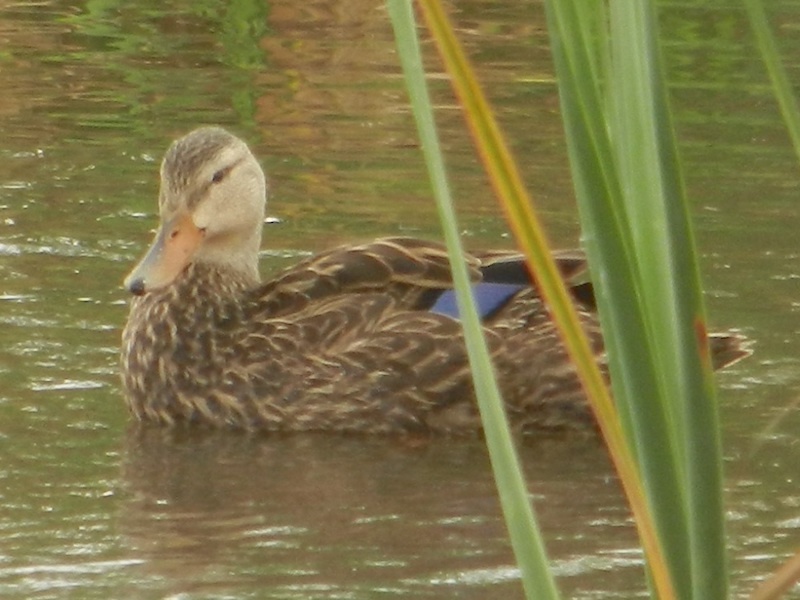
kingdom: Animalia
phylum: Chordata
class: Aves
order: Anseriformes
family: Anatidae
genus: Anas
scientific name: Anas fulvigula
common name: Mottled duck
